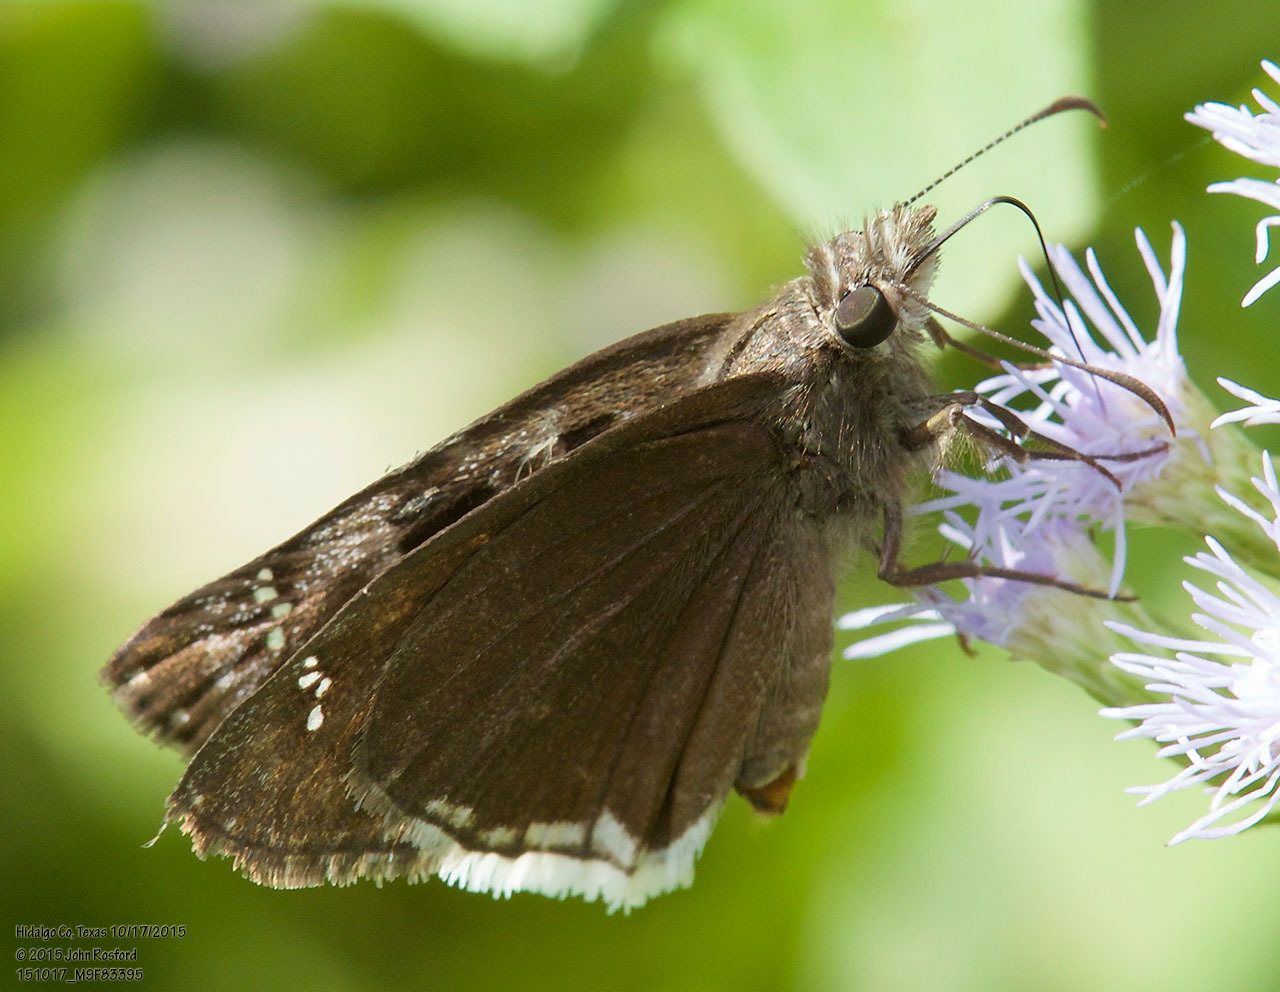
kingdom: Animalia
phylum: Arthropoda
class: Insecta
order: Lepidoptera
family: Hesperiidae
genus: Erynnis
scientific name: Erynnis tristis
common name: Mournful duskywing
